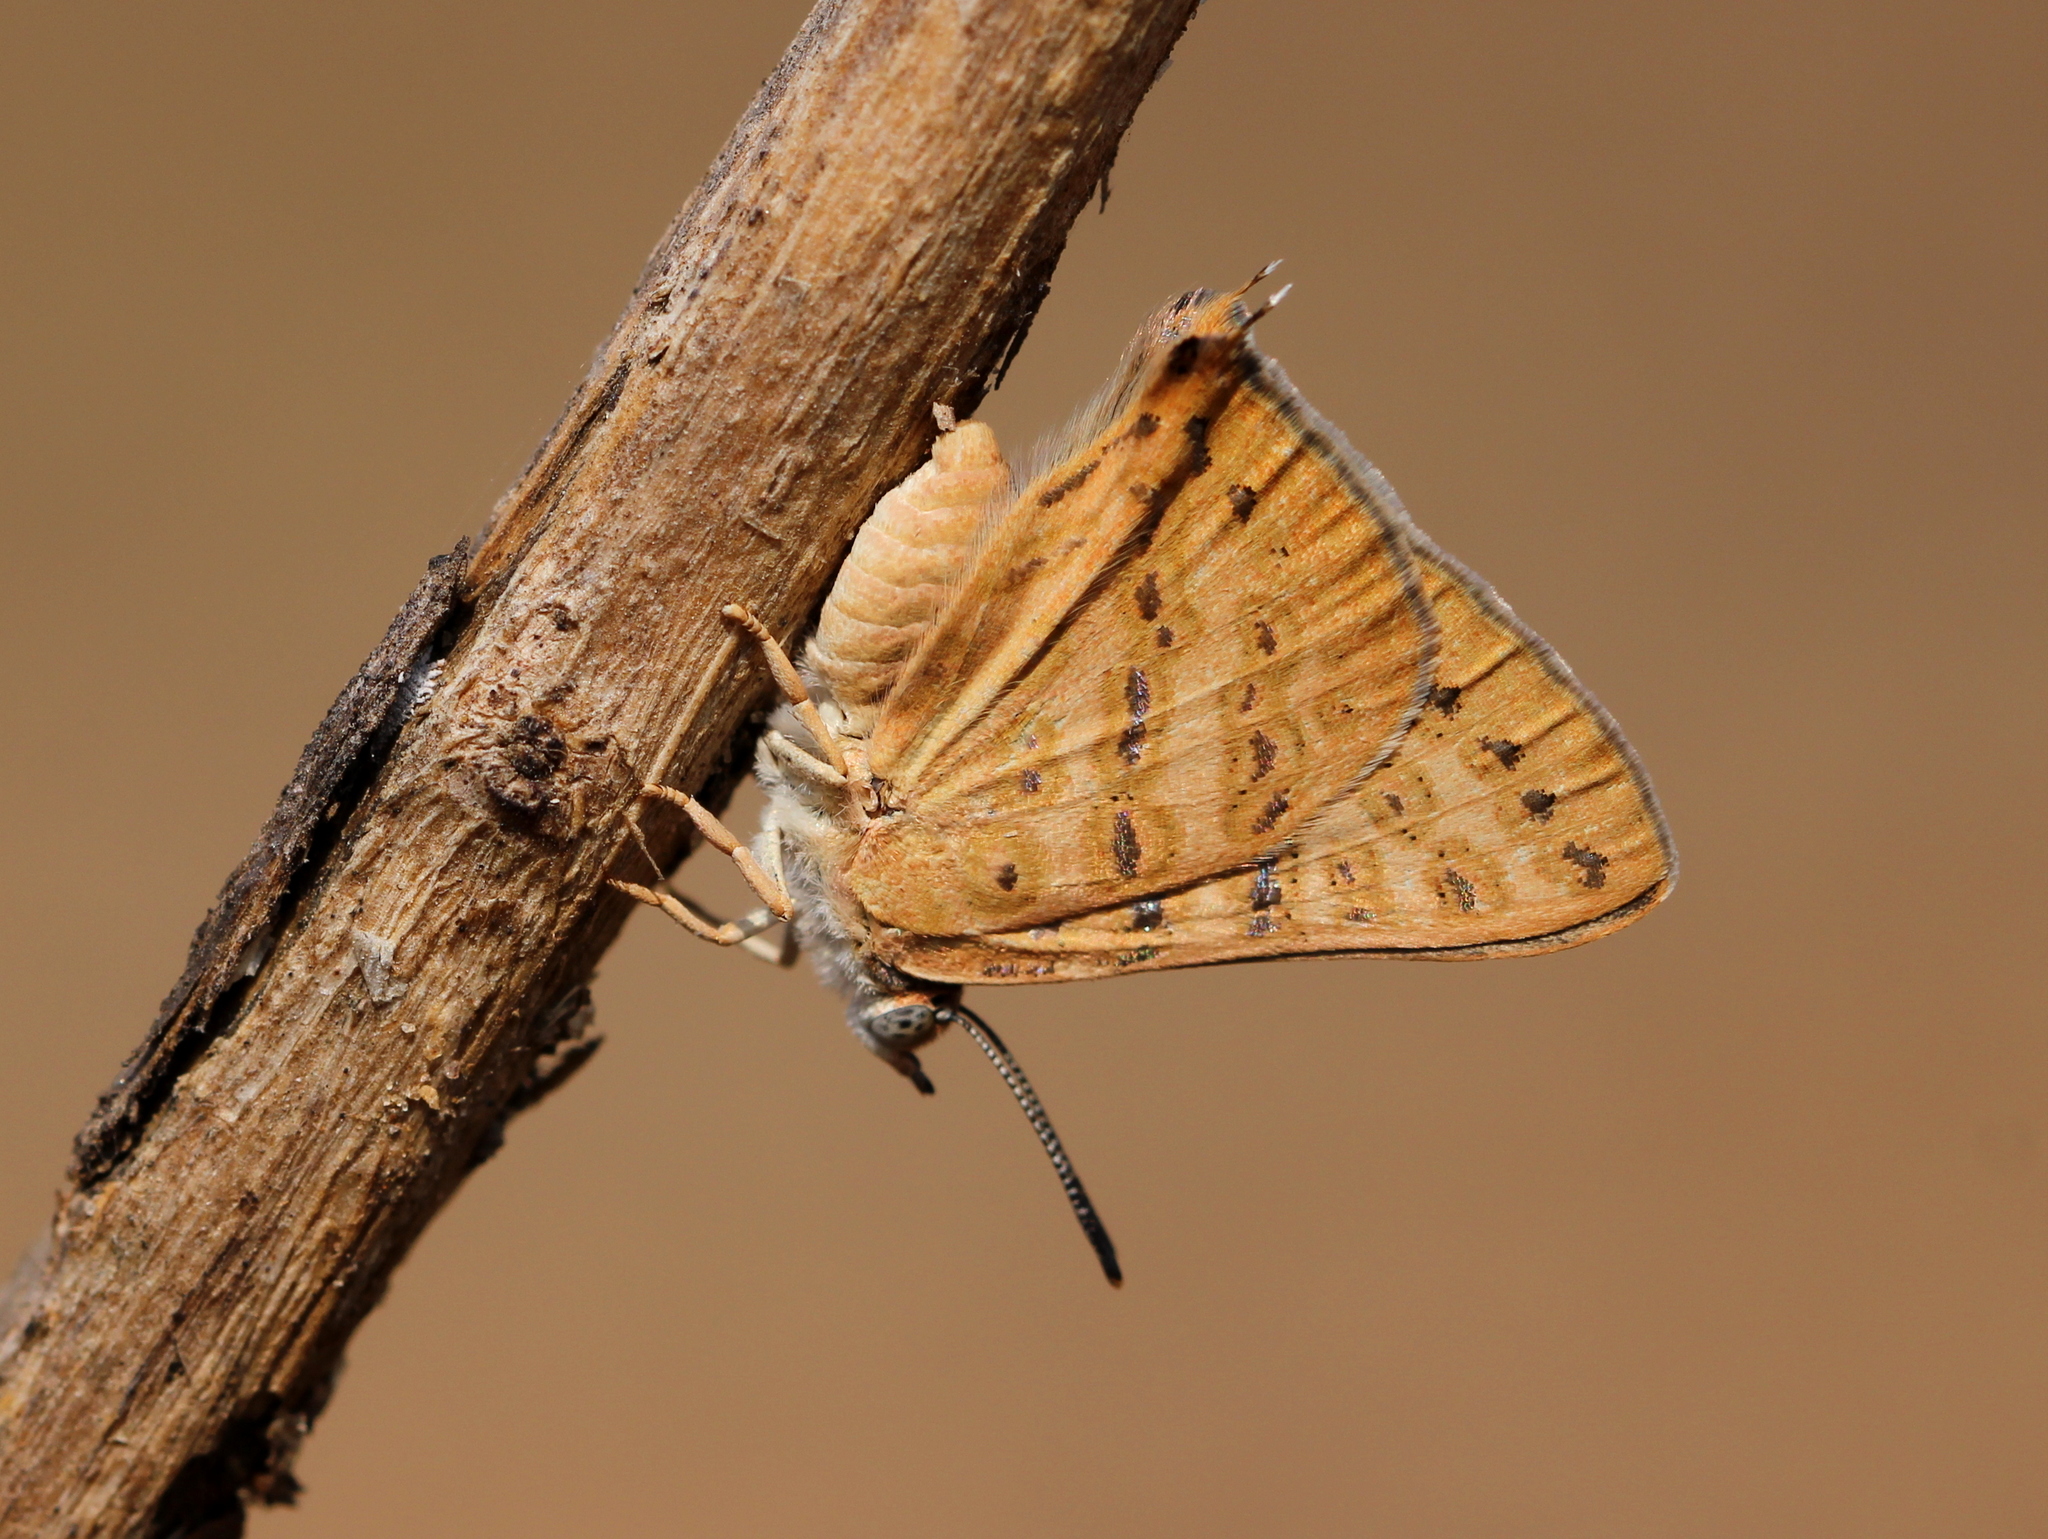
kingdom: Animalia
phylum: Arthropoda
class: Insecta
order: Lepidoptera
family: Lycaenidae
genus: Aphnaeus
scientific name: Aphnaeus lilacinus
